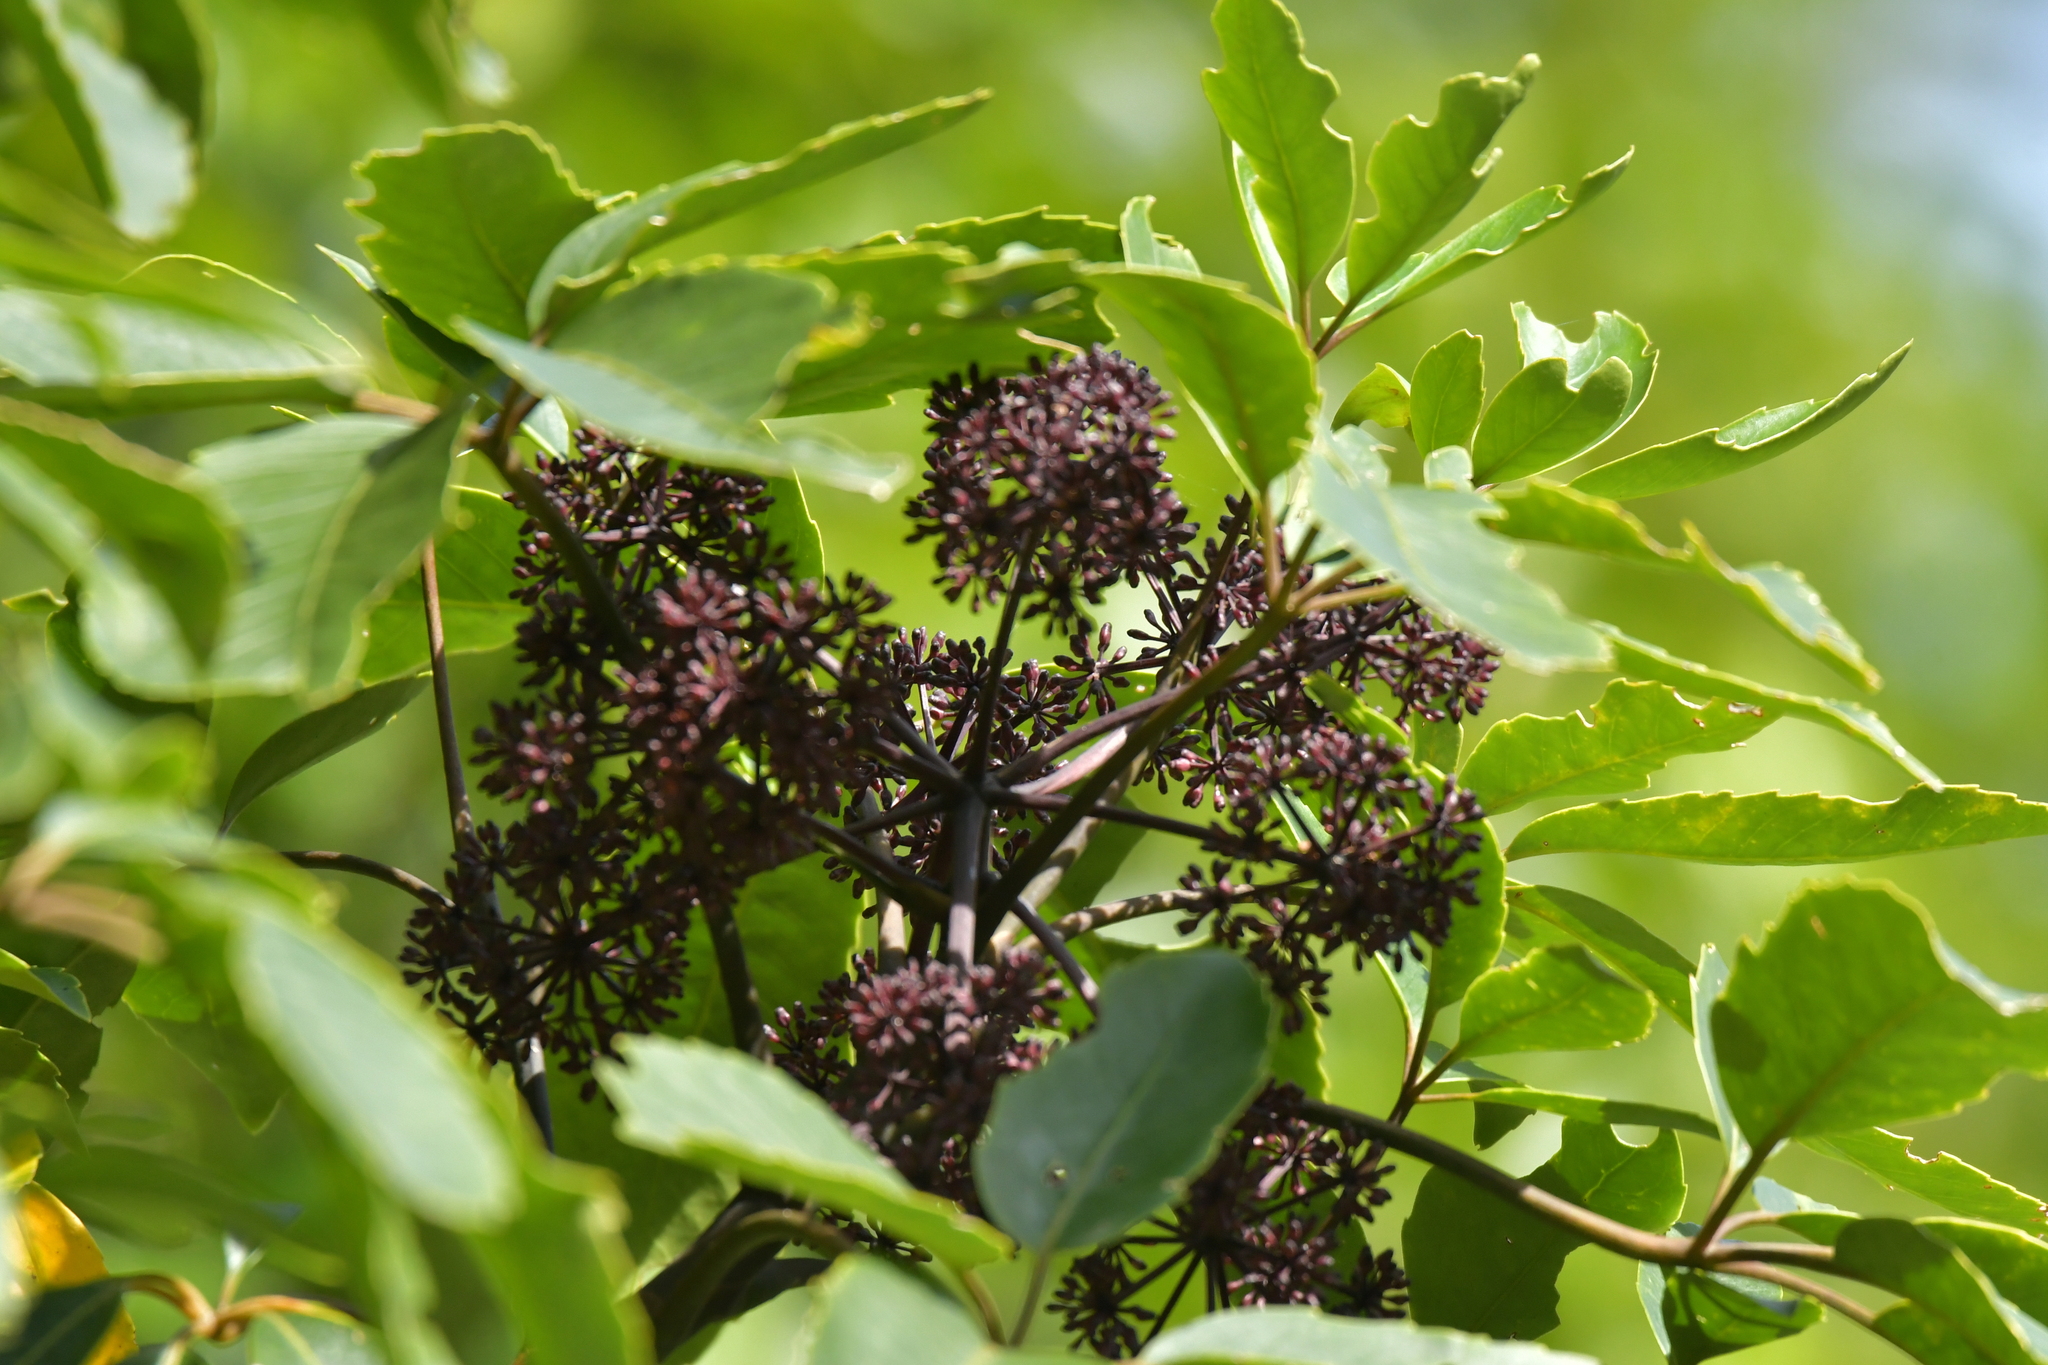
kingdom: Plantae
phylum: Tracheophyta
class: Magnoliopsida
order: Apiales
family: Araliaceae
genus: Neopanax
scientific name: Neopanax arboreus
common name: Five-fingers
